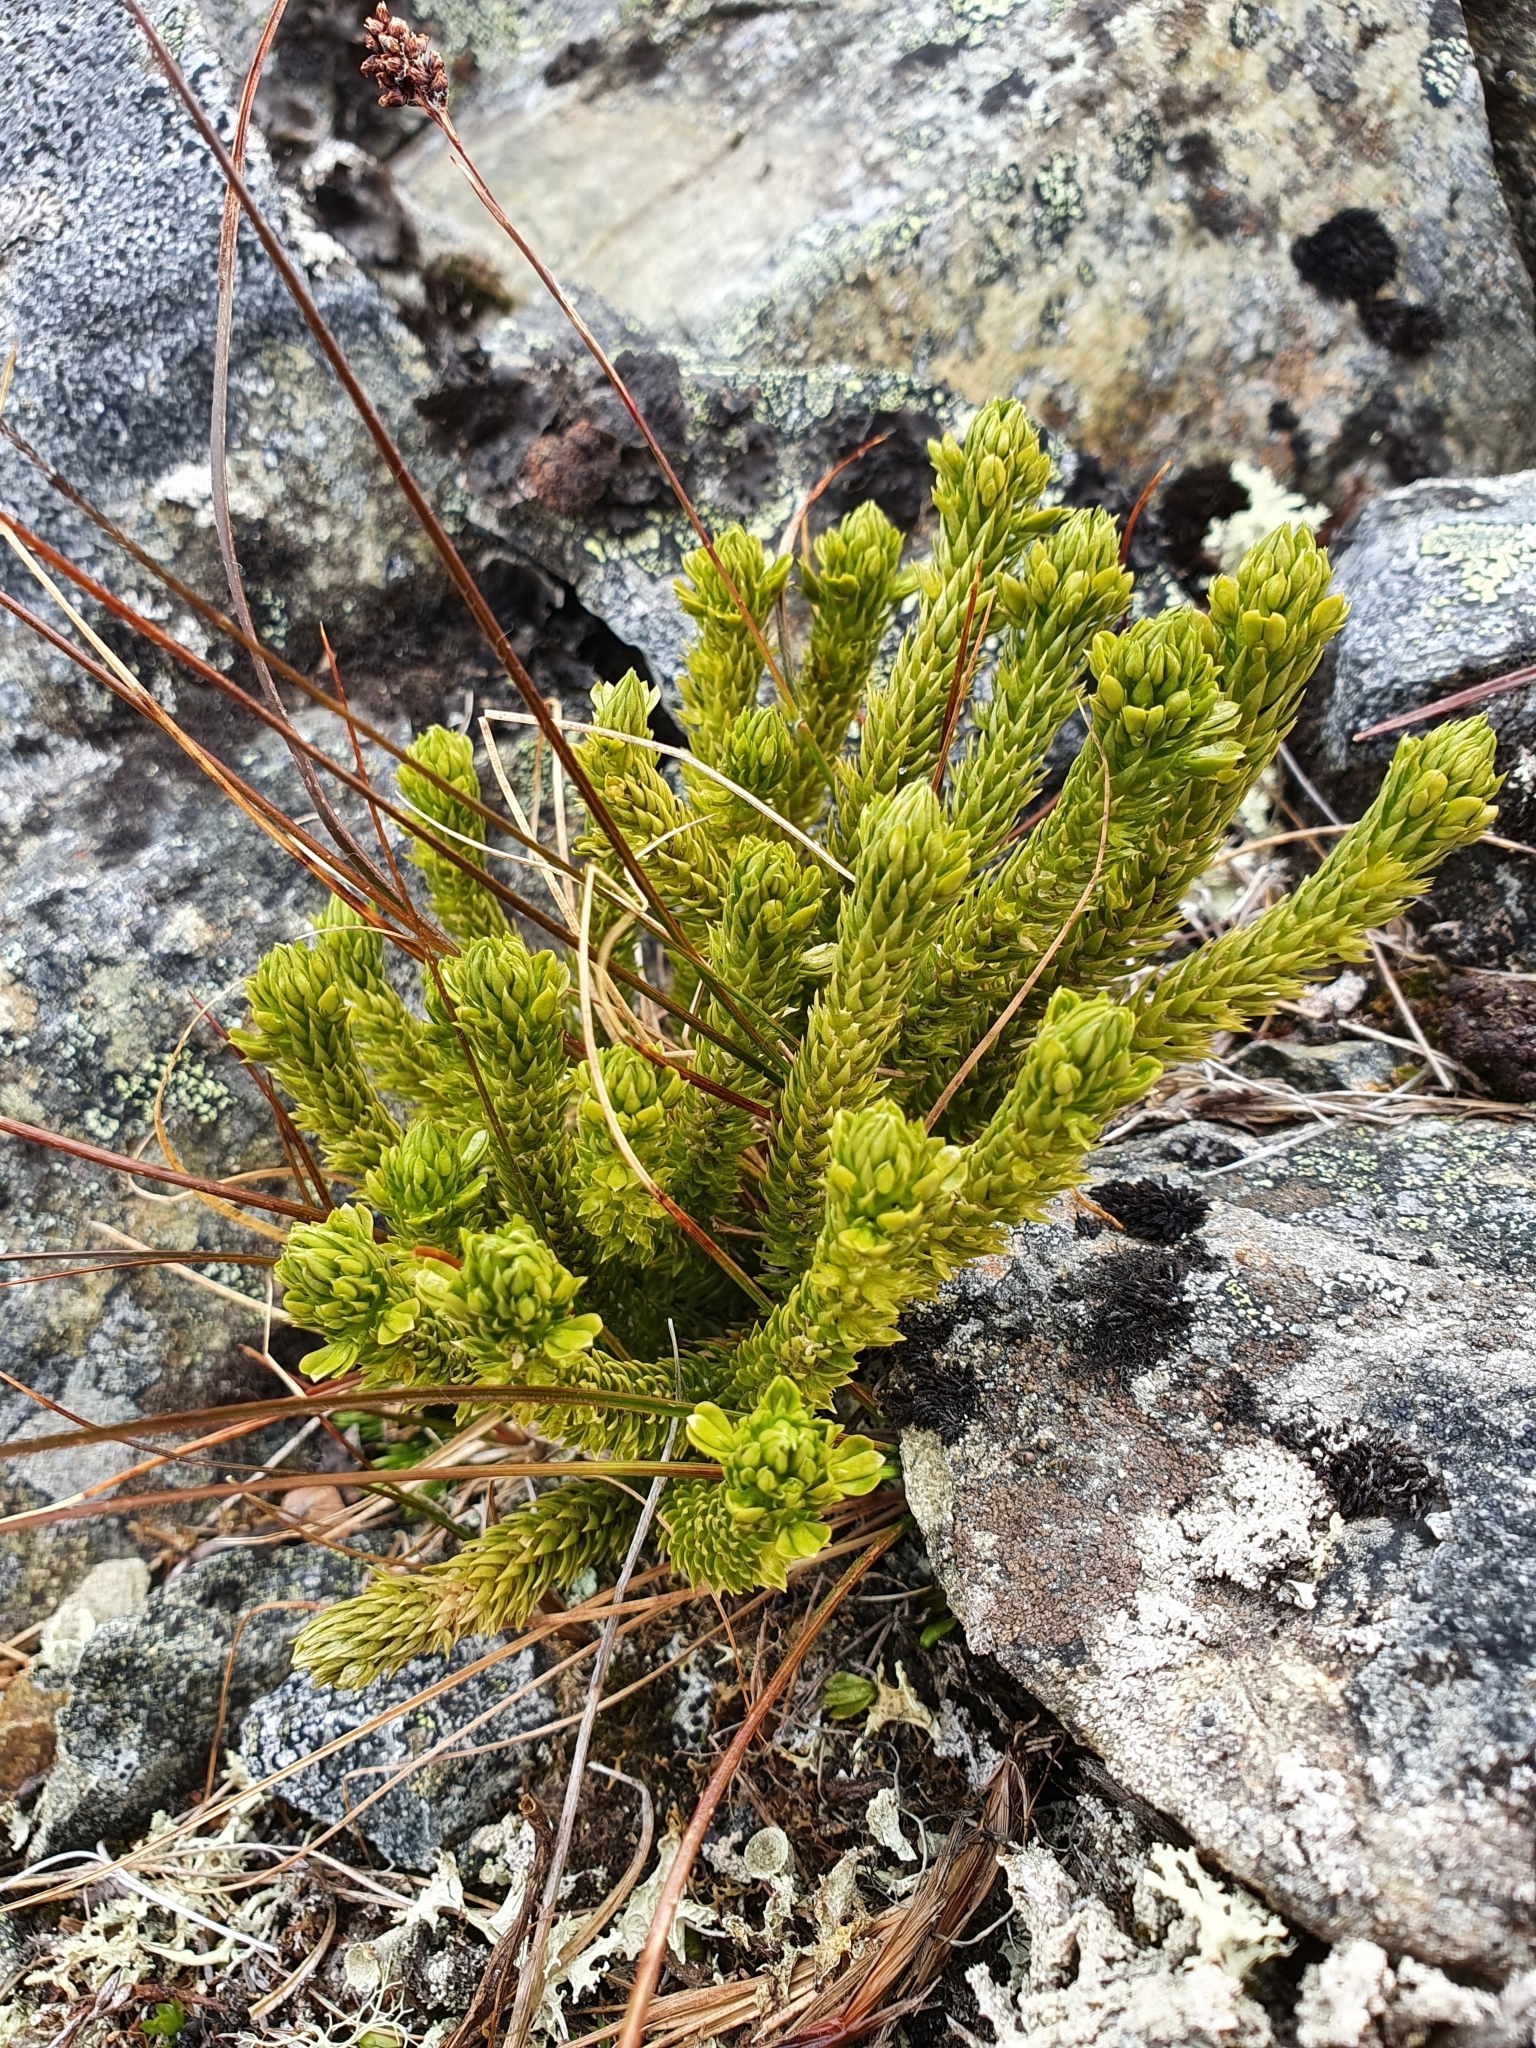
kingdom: Plantae
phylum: Tracheophyta
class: Lycopodiopsida
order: Lycopodiales
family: Lycopodiaceae
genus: Huperzia
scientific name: Huperzia selago
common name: Northern firmoss
